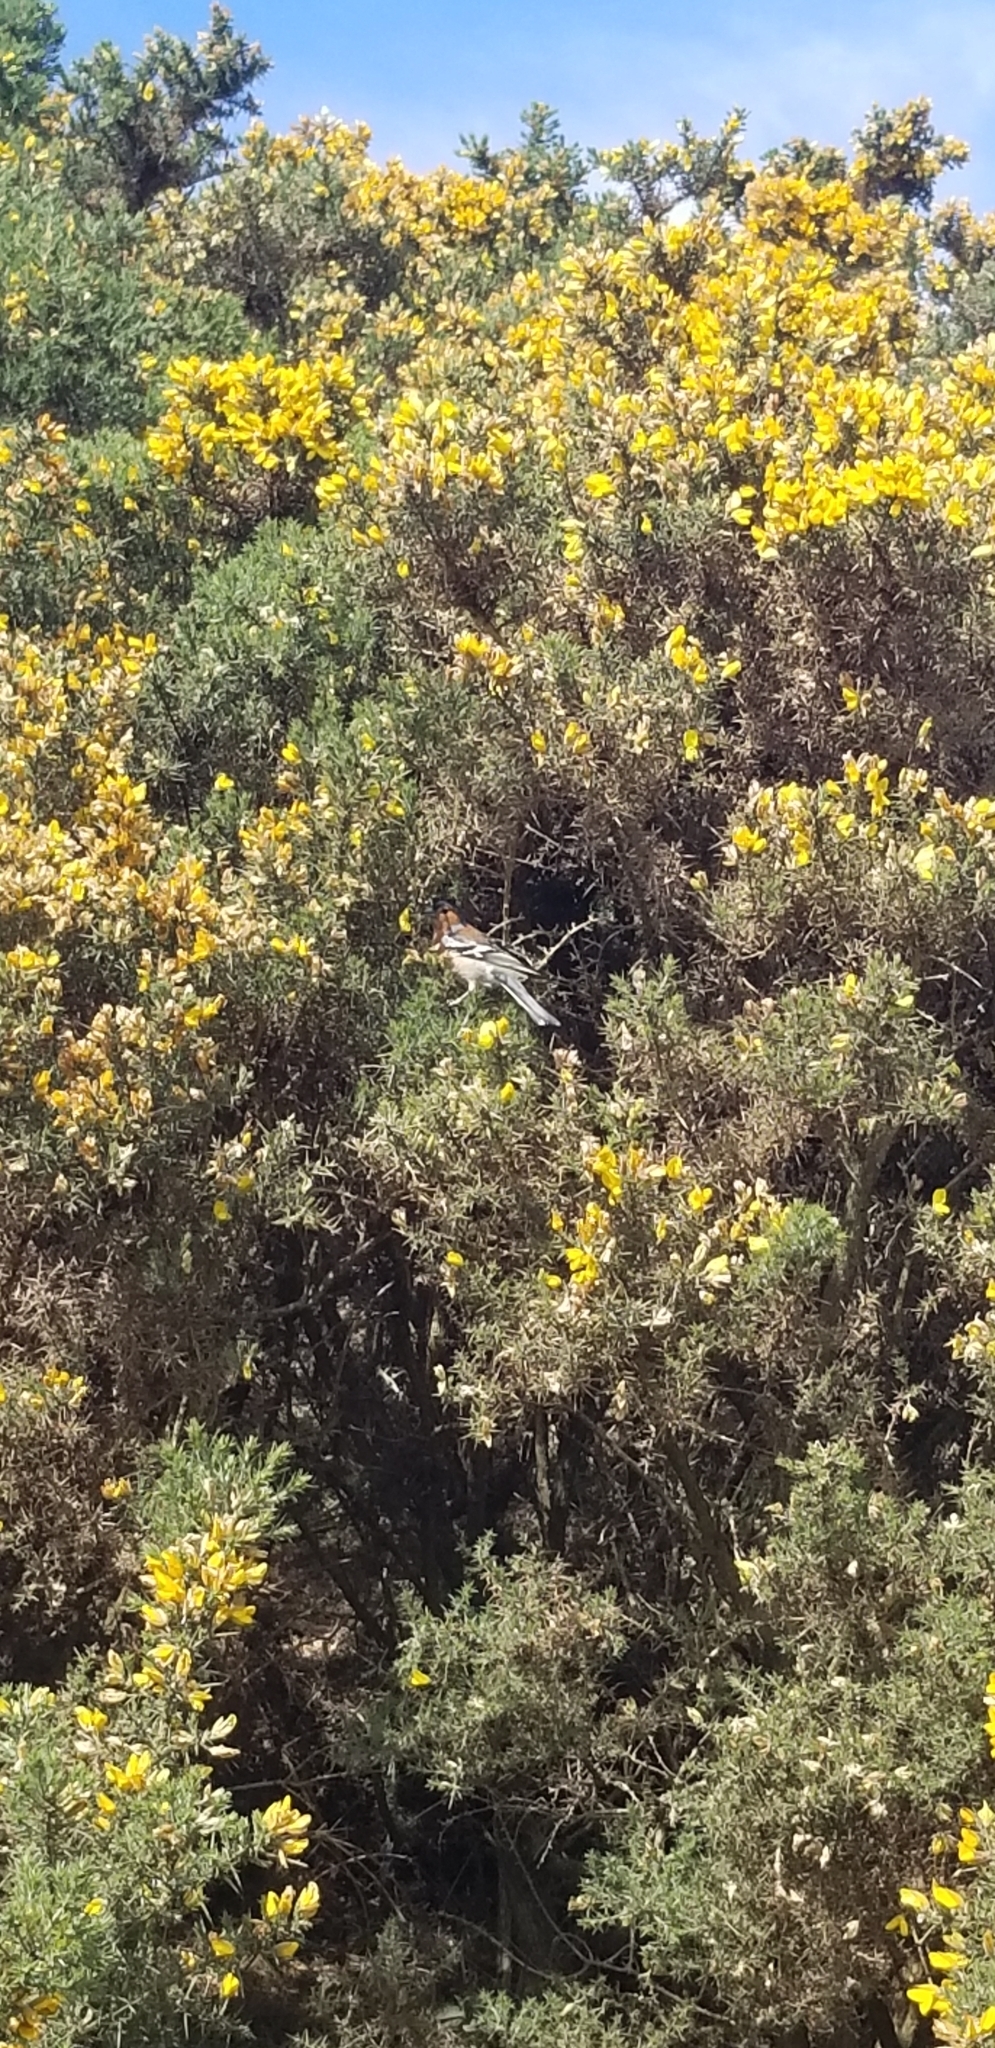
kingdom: Animalia
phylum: Chordata
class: Aves
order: Passeriformes
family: Fringillidae
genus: Fringilla
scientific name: Fringilla coelebs
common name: Common chaffinch
